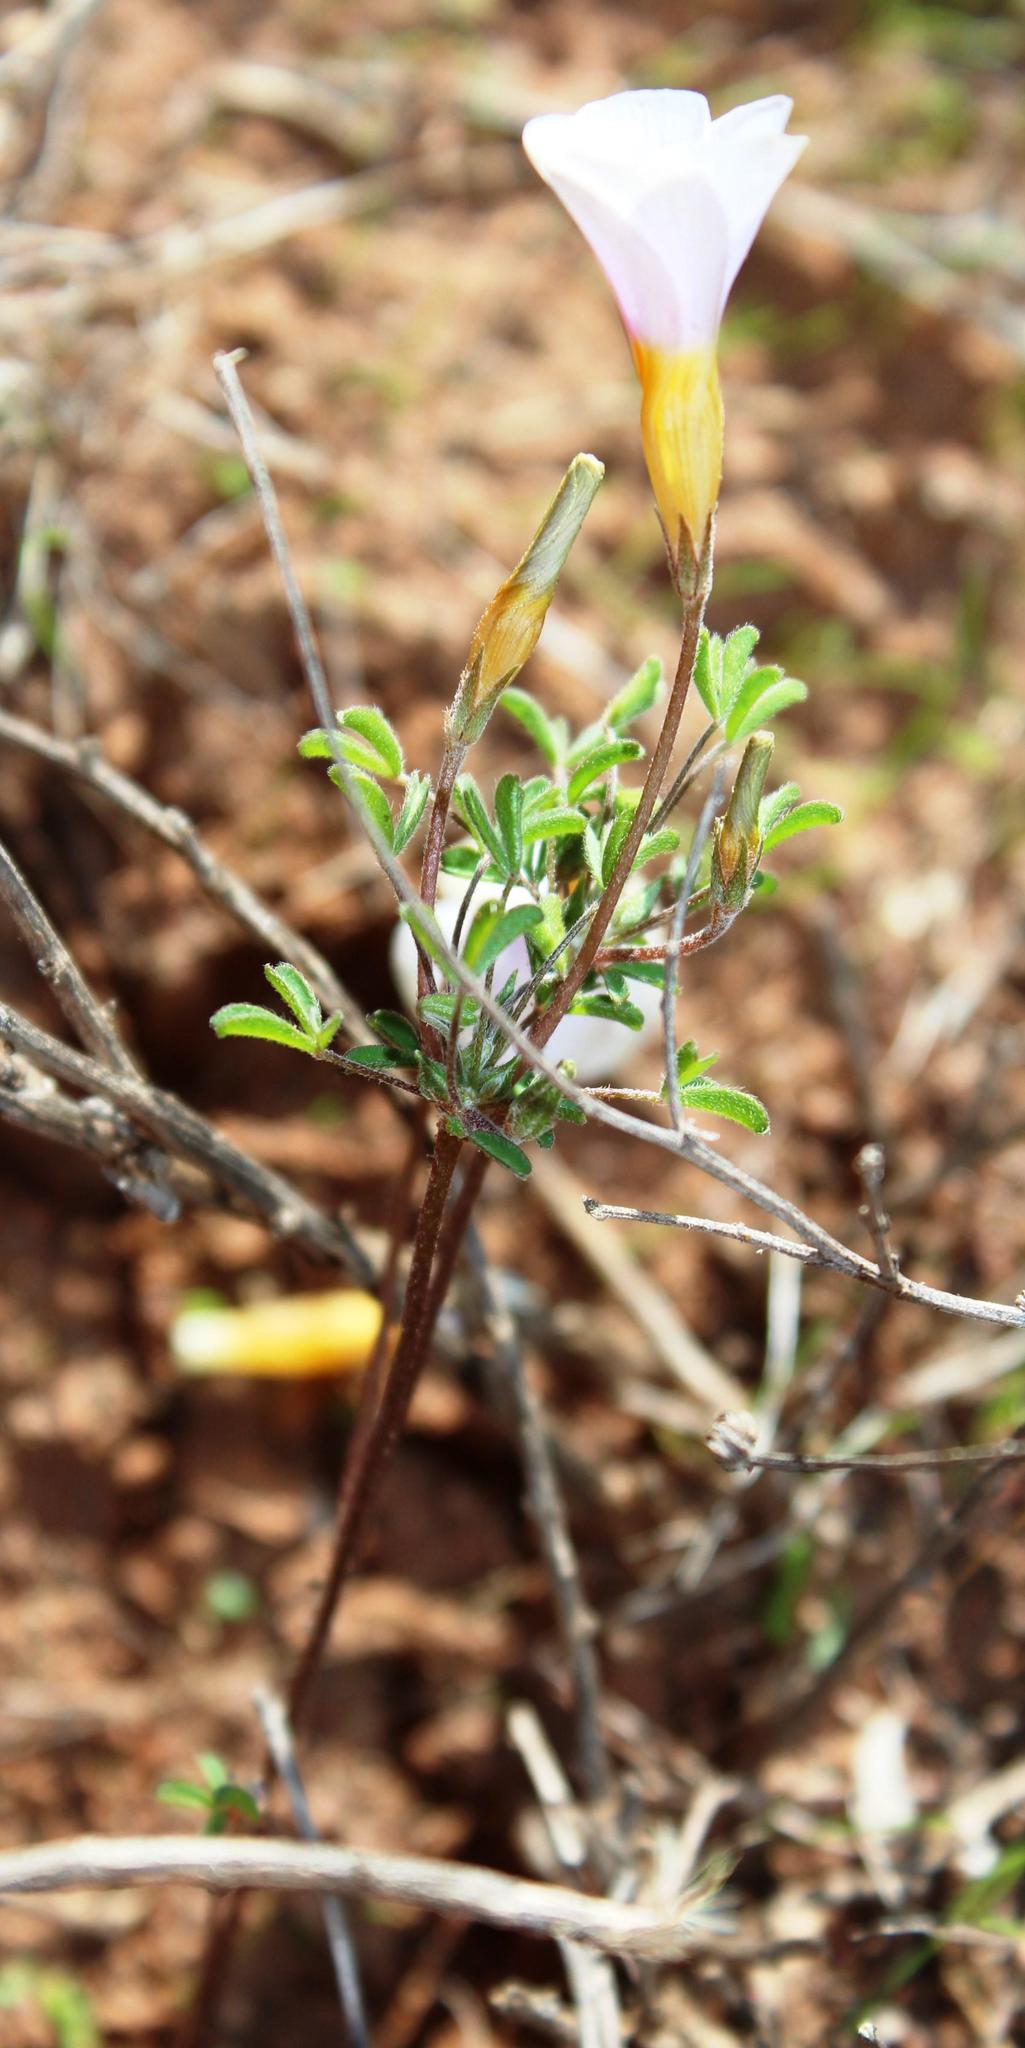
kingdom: Plantae
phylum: Tracheophyta
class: Magnoliopsida
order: Oxalidales
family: Oxalidaceae
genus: Oxalis
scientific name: Oxalis ciliaris
